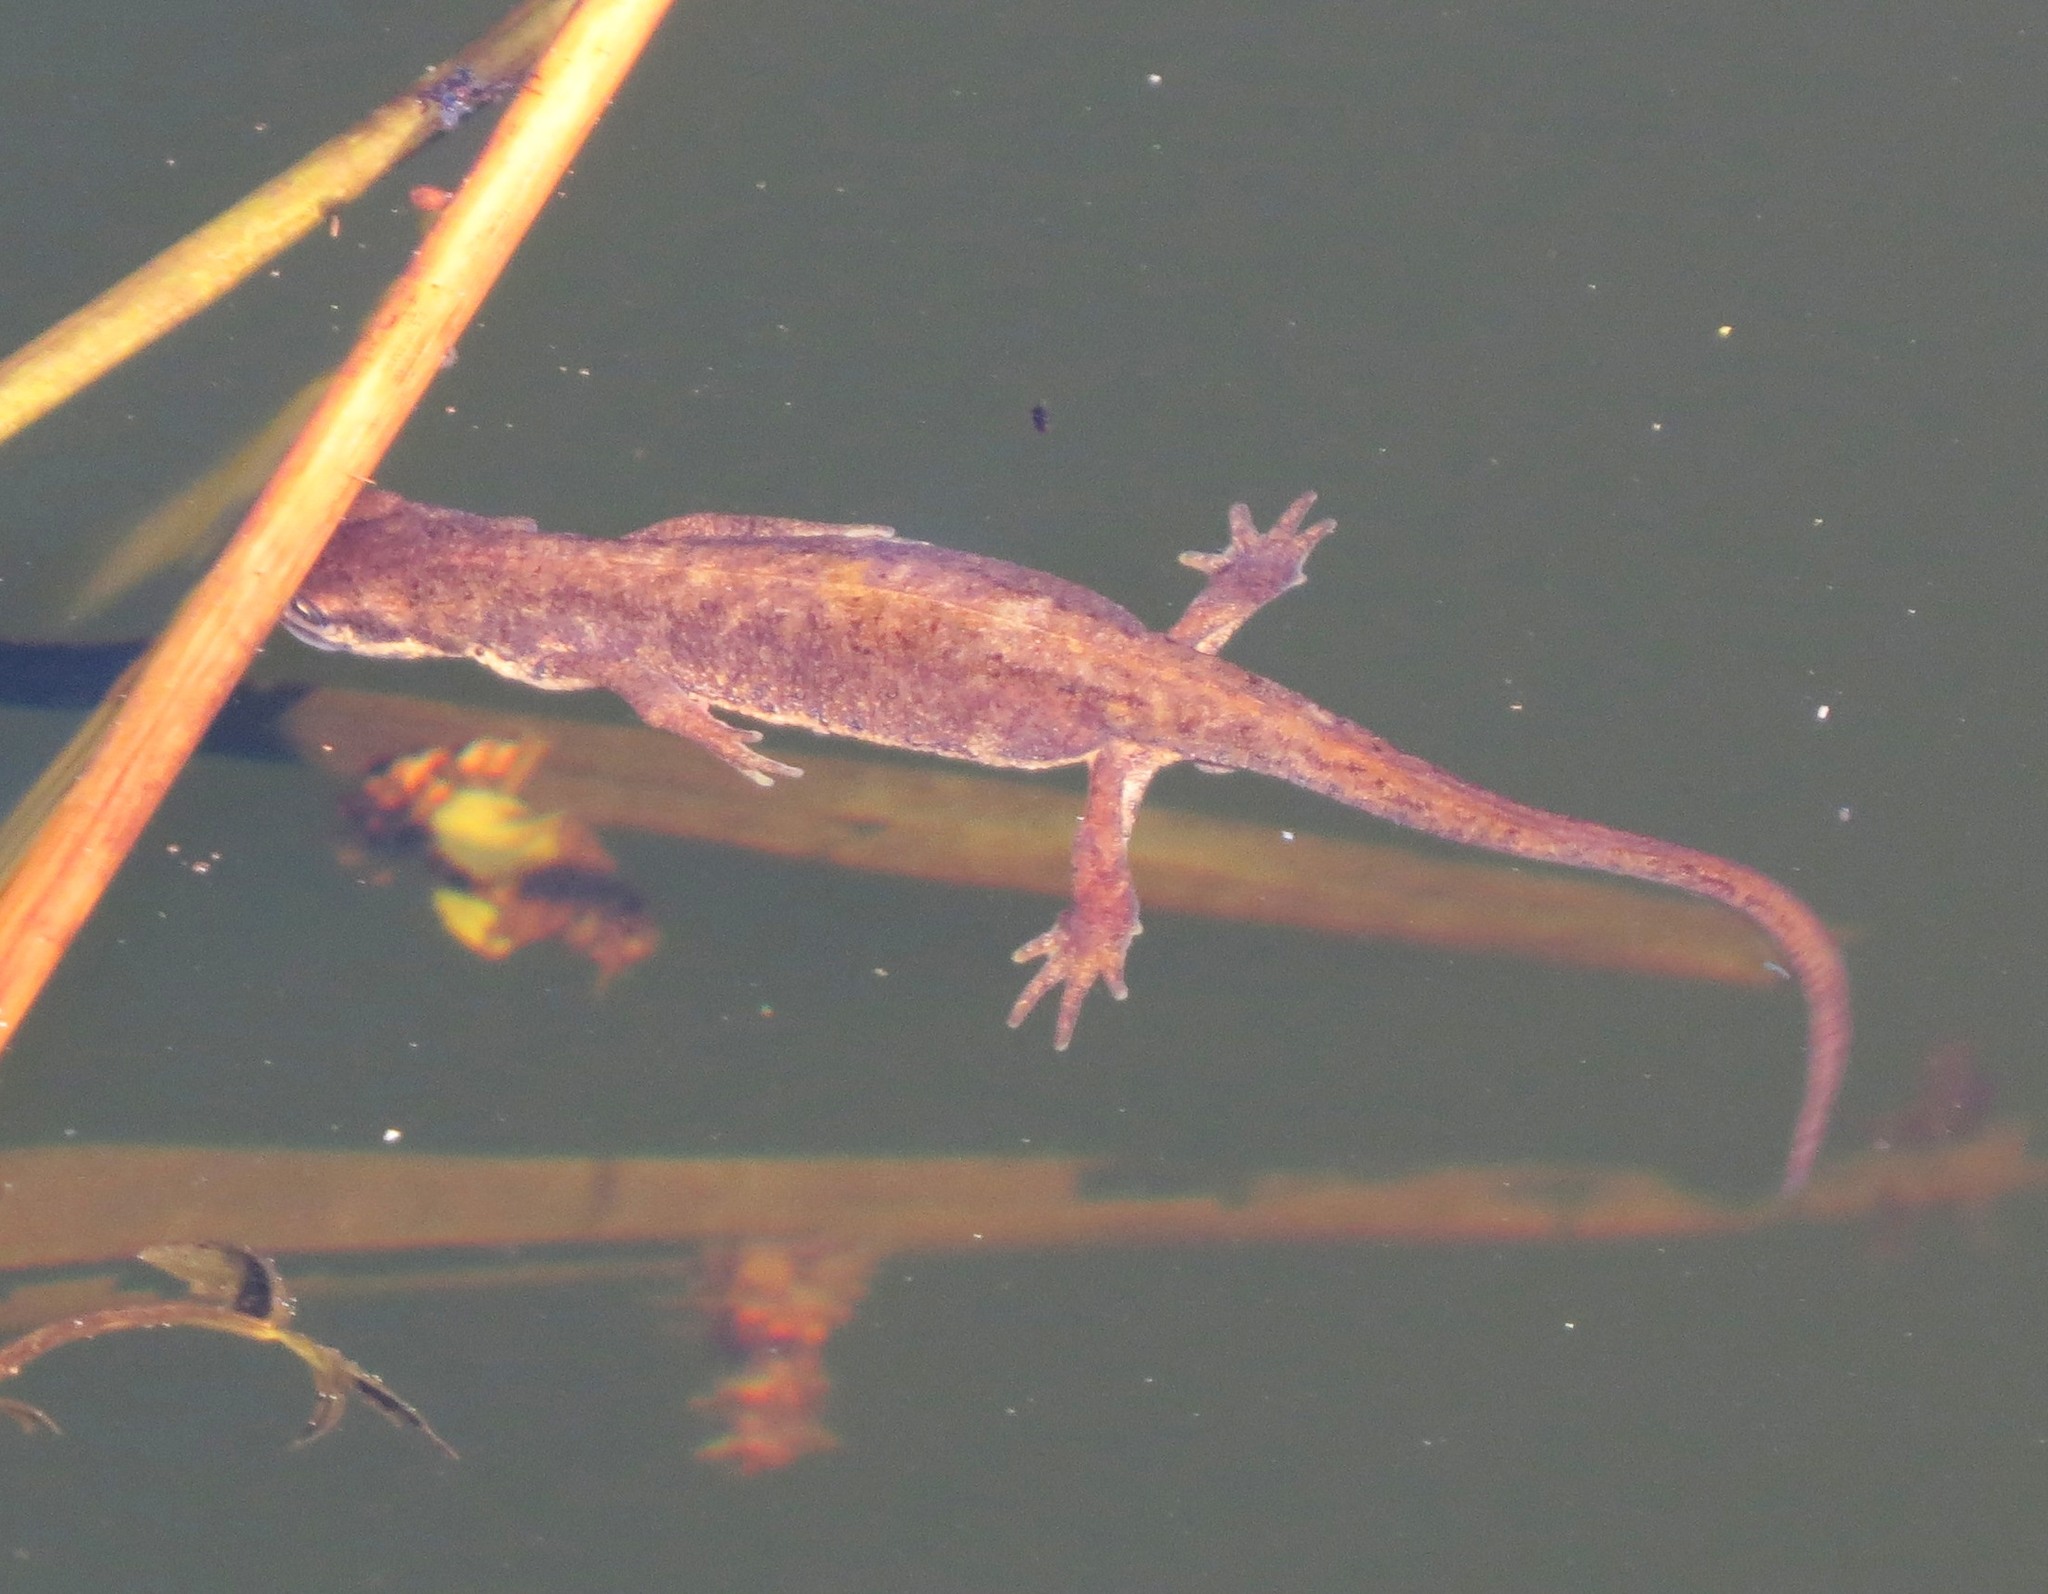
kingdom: Animalia
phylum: Chordata
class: Amphibia
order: Caudata
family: Salamandridae
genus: Lissotriton
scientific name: Lissotriton vulgaris
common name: Smooth newt
